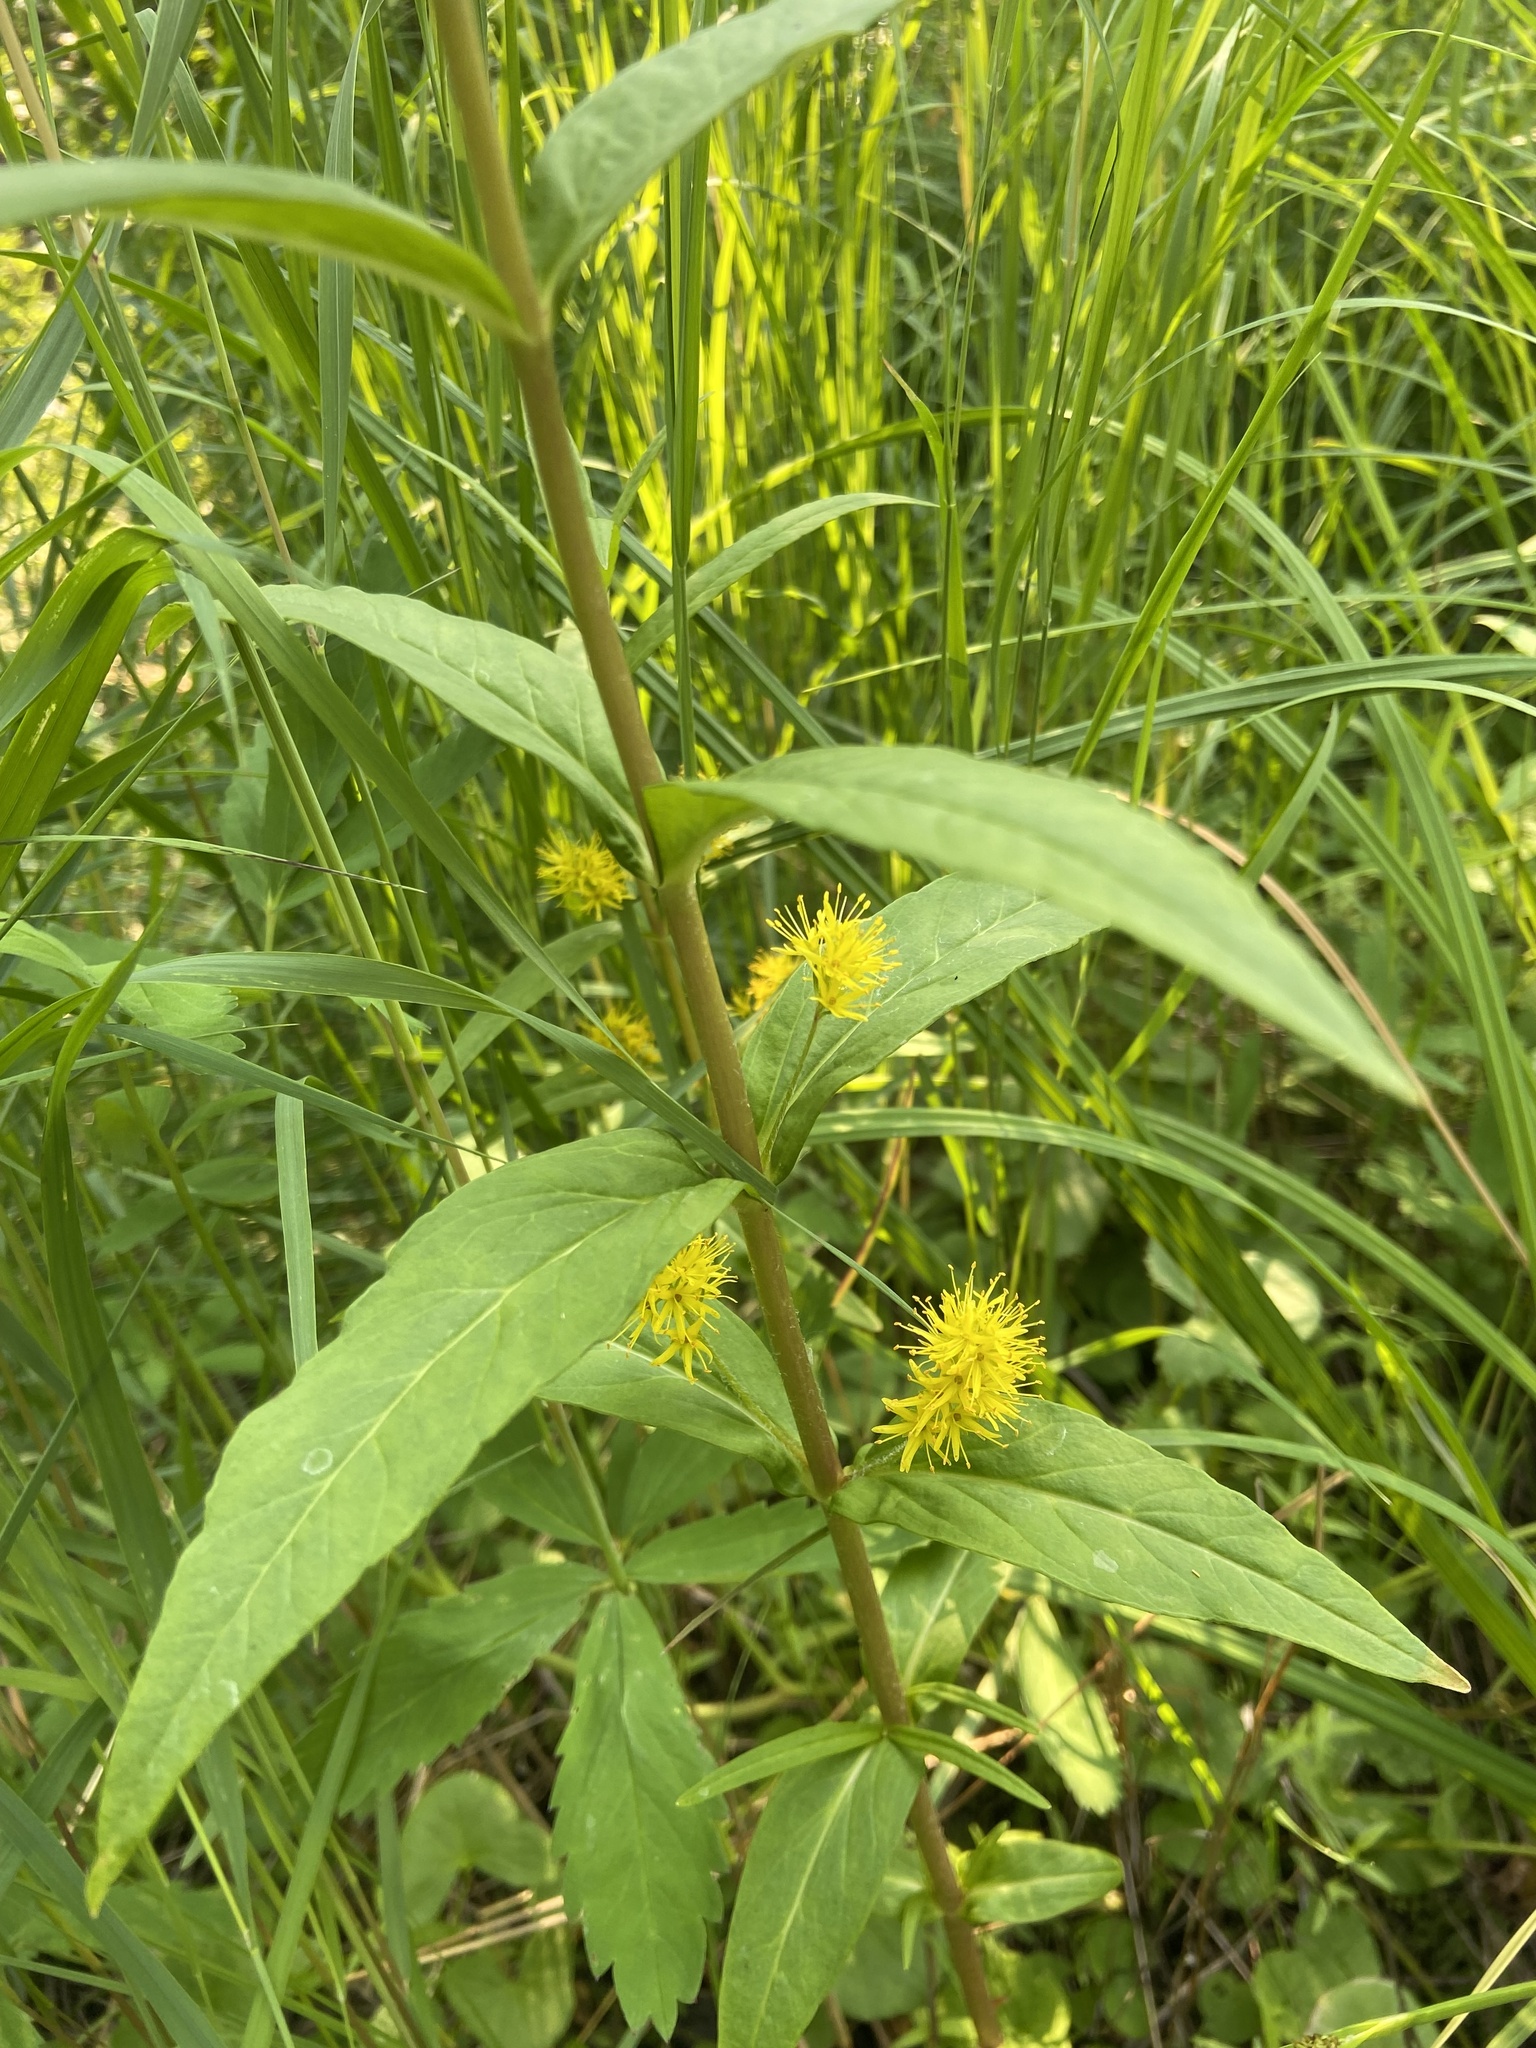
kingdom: Plantae
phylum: Tracheophyta
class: Magnoliopsida
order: Ericales
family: Primulaceae
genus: Lysimachia
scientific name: Lysimachia thyrsiflora
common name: Tufted loosestrife
